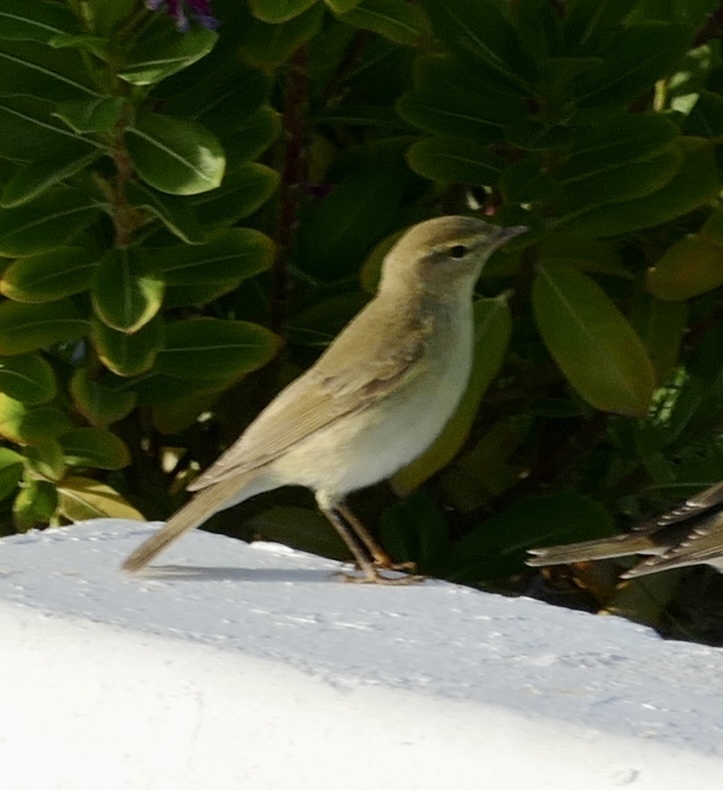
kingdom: Animalia
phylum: Chordata
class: Aves
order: Passeriformes
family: Phylloscopidae
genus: Phylloscopus
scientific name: Phylloscopus trochilus
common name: Willow warbler
